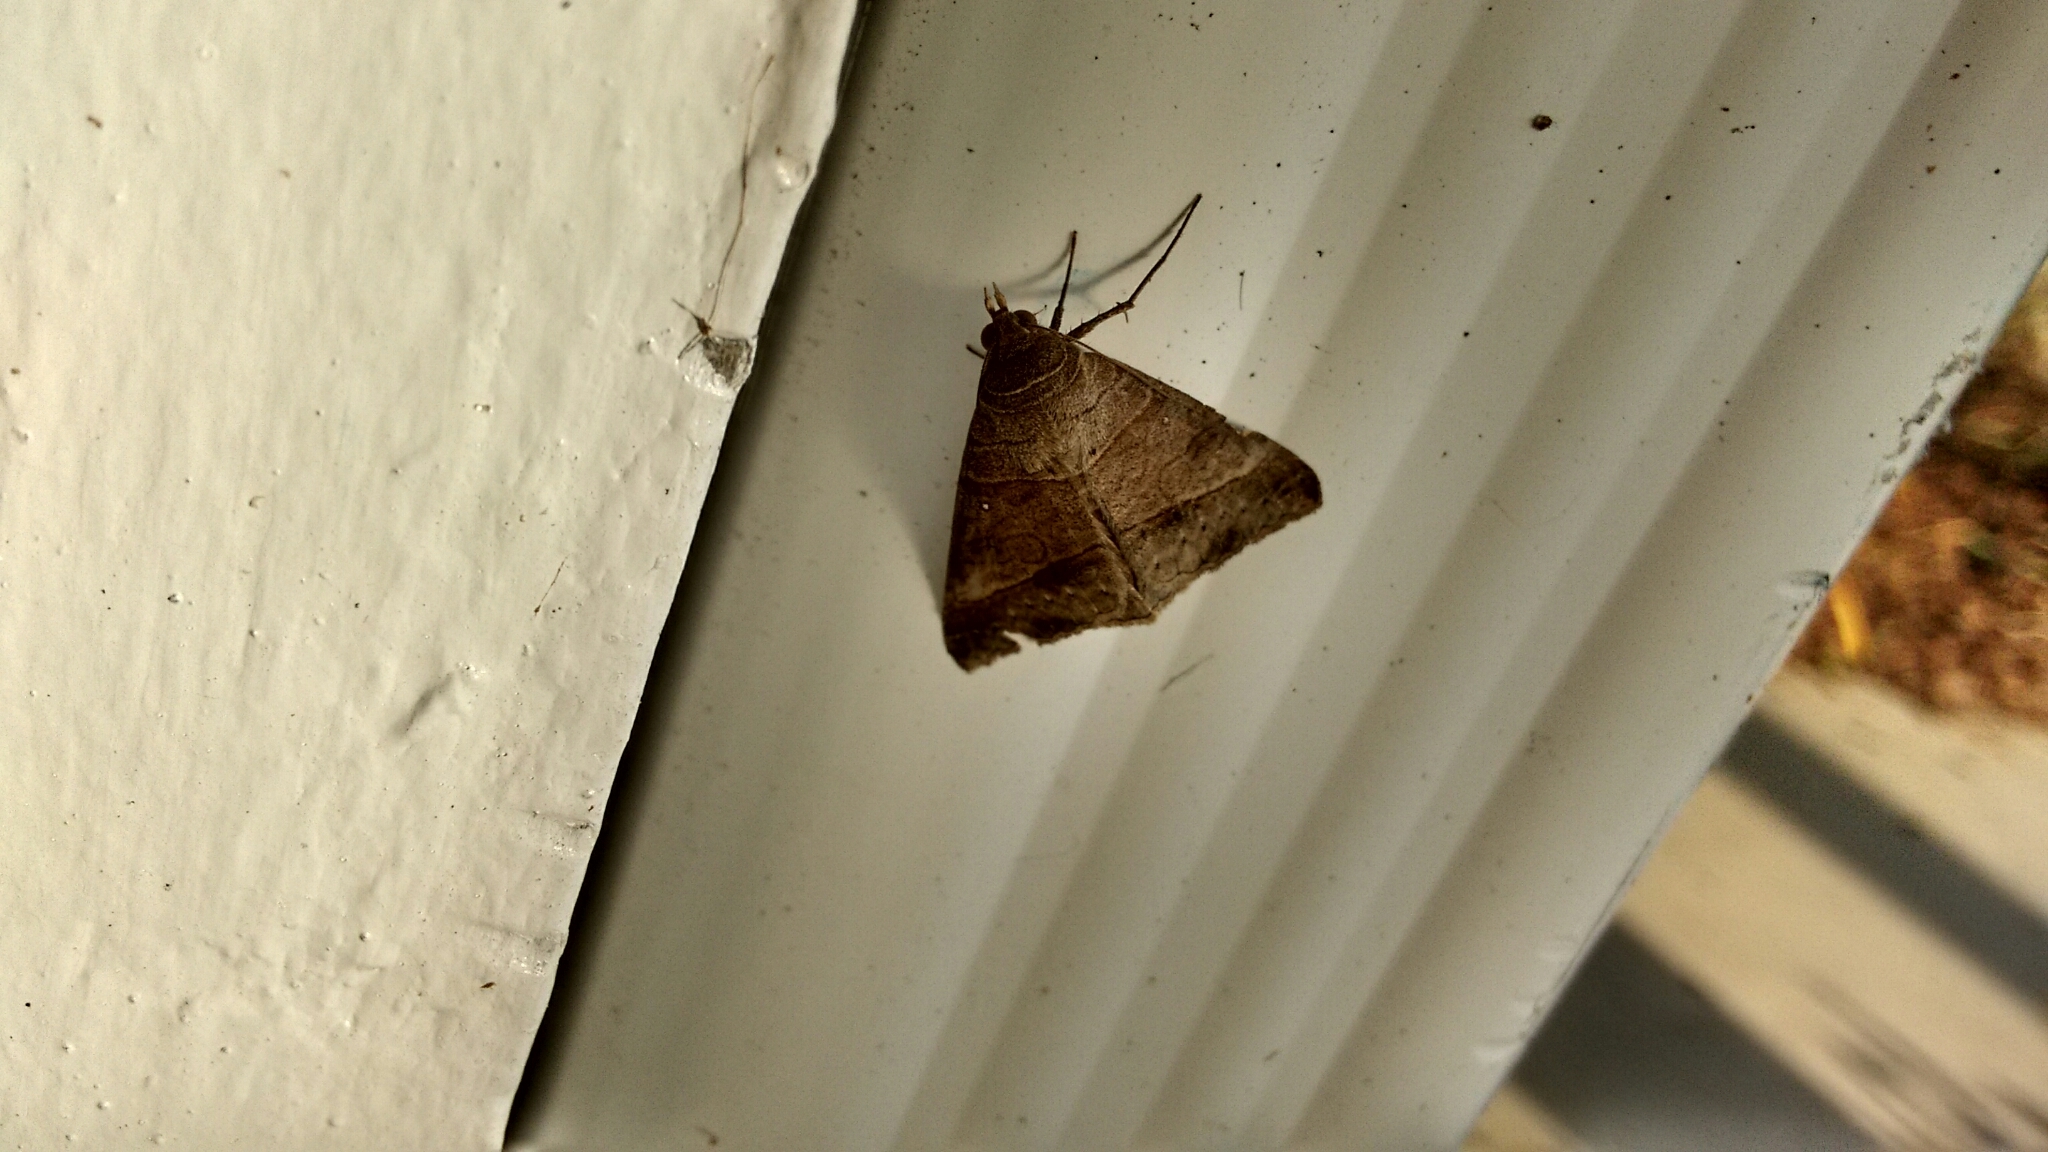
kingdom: Animalia
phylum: Arthropoda
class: Insecta
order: Lepidoptera
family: Erebidae
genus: Mocis
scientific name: Mocis latipes
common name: Striped grass looper
